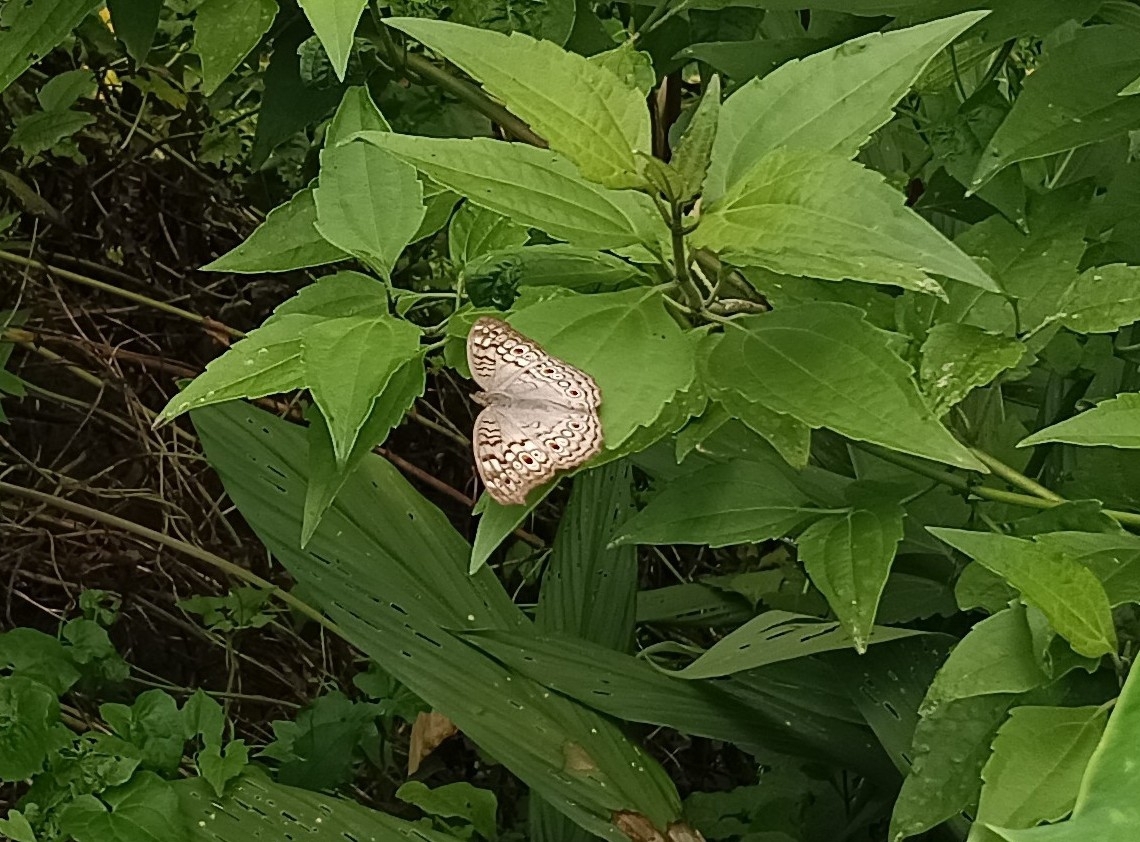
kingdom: Animalia
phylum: Arthropoda
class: Insecta
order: Lepidoptera
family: Nymphalidae
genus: Junonia
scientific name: Junonia atlites
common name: Grey pansy
